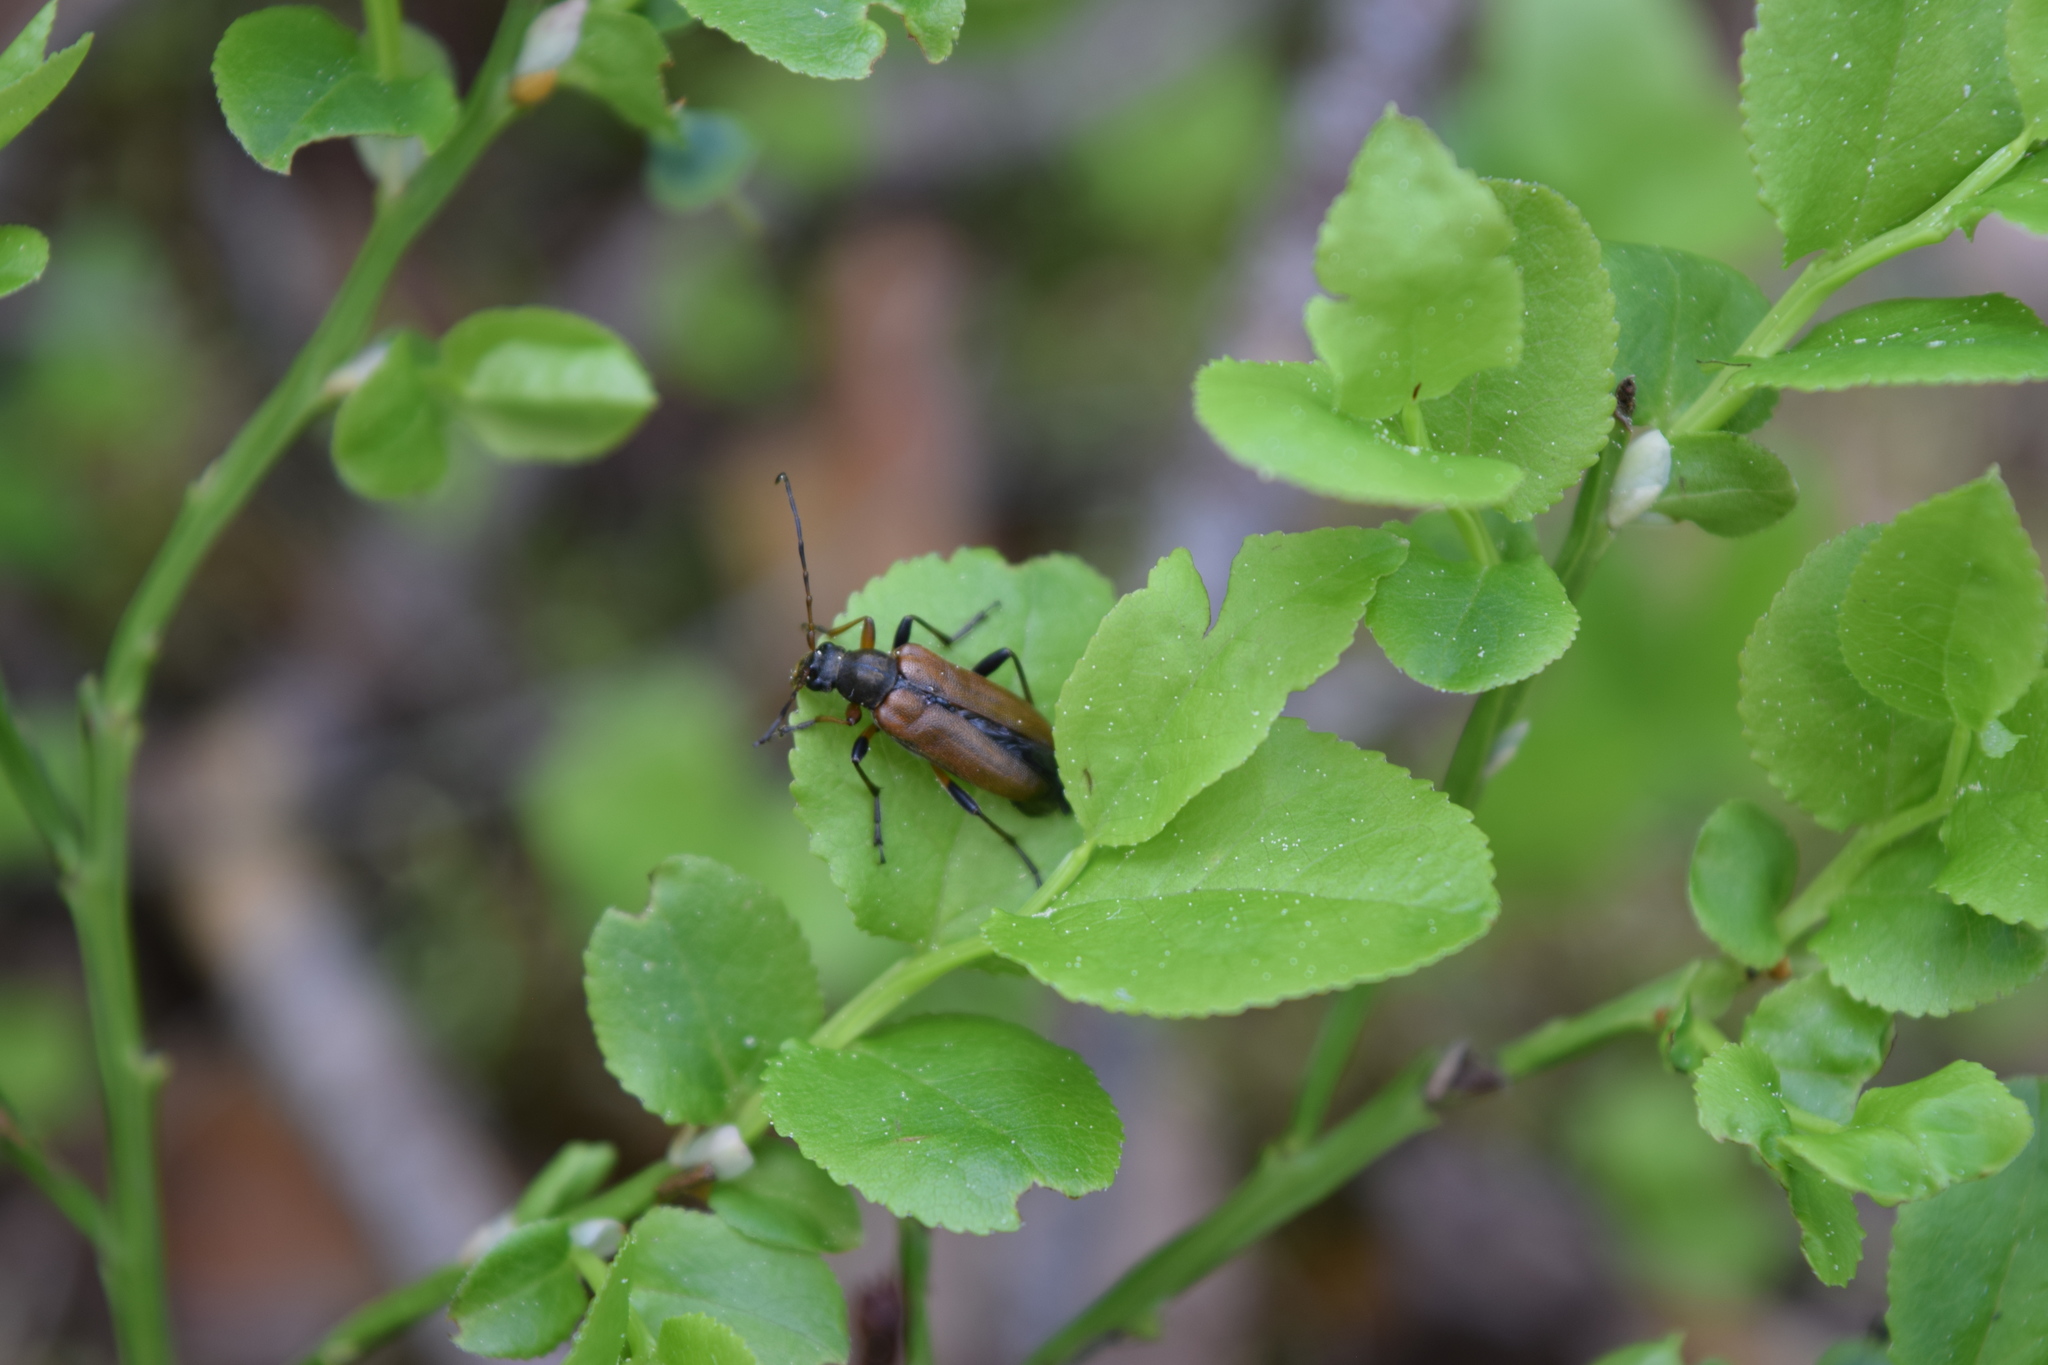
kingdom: Animalia
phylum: Arthropoda
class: Insecta
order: Coleoptera
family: Cerambycidae
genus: Cortodera
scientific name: Cortodera
